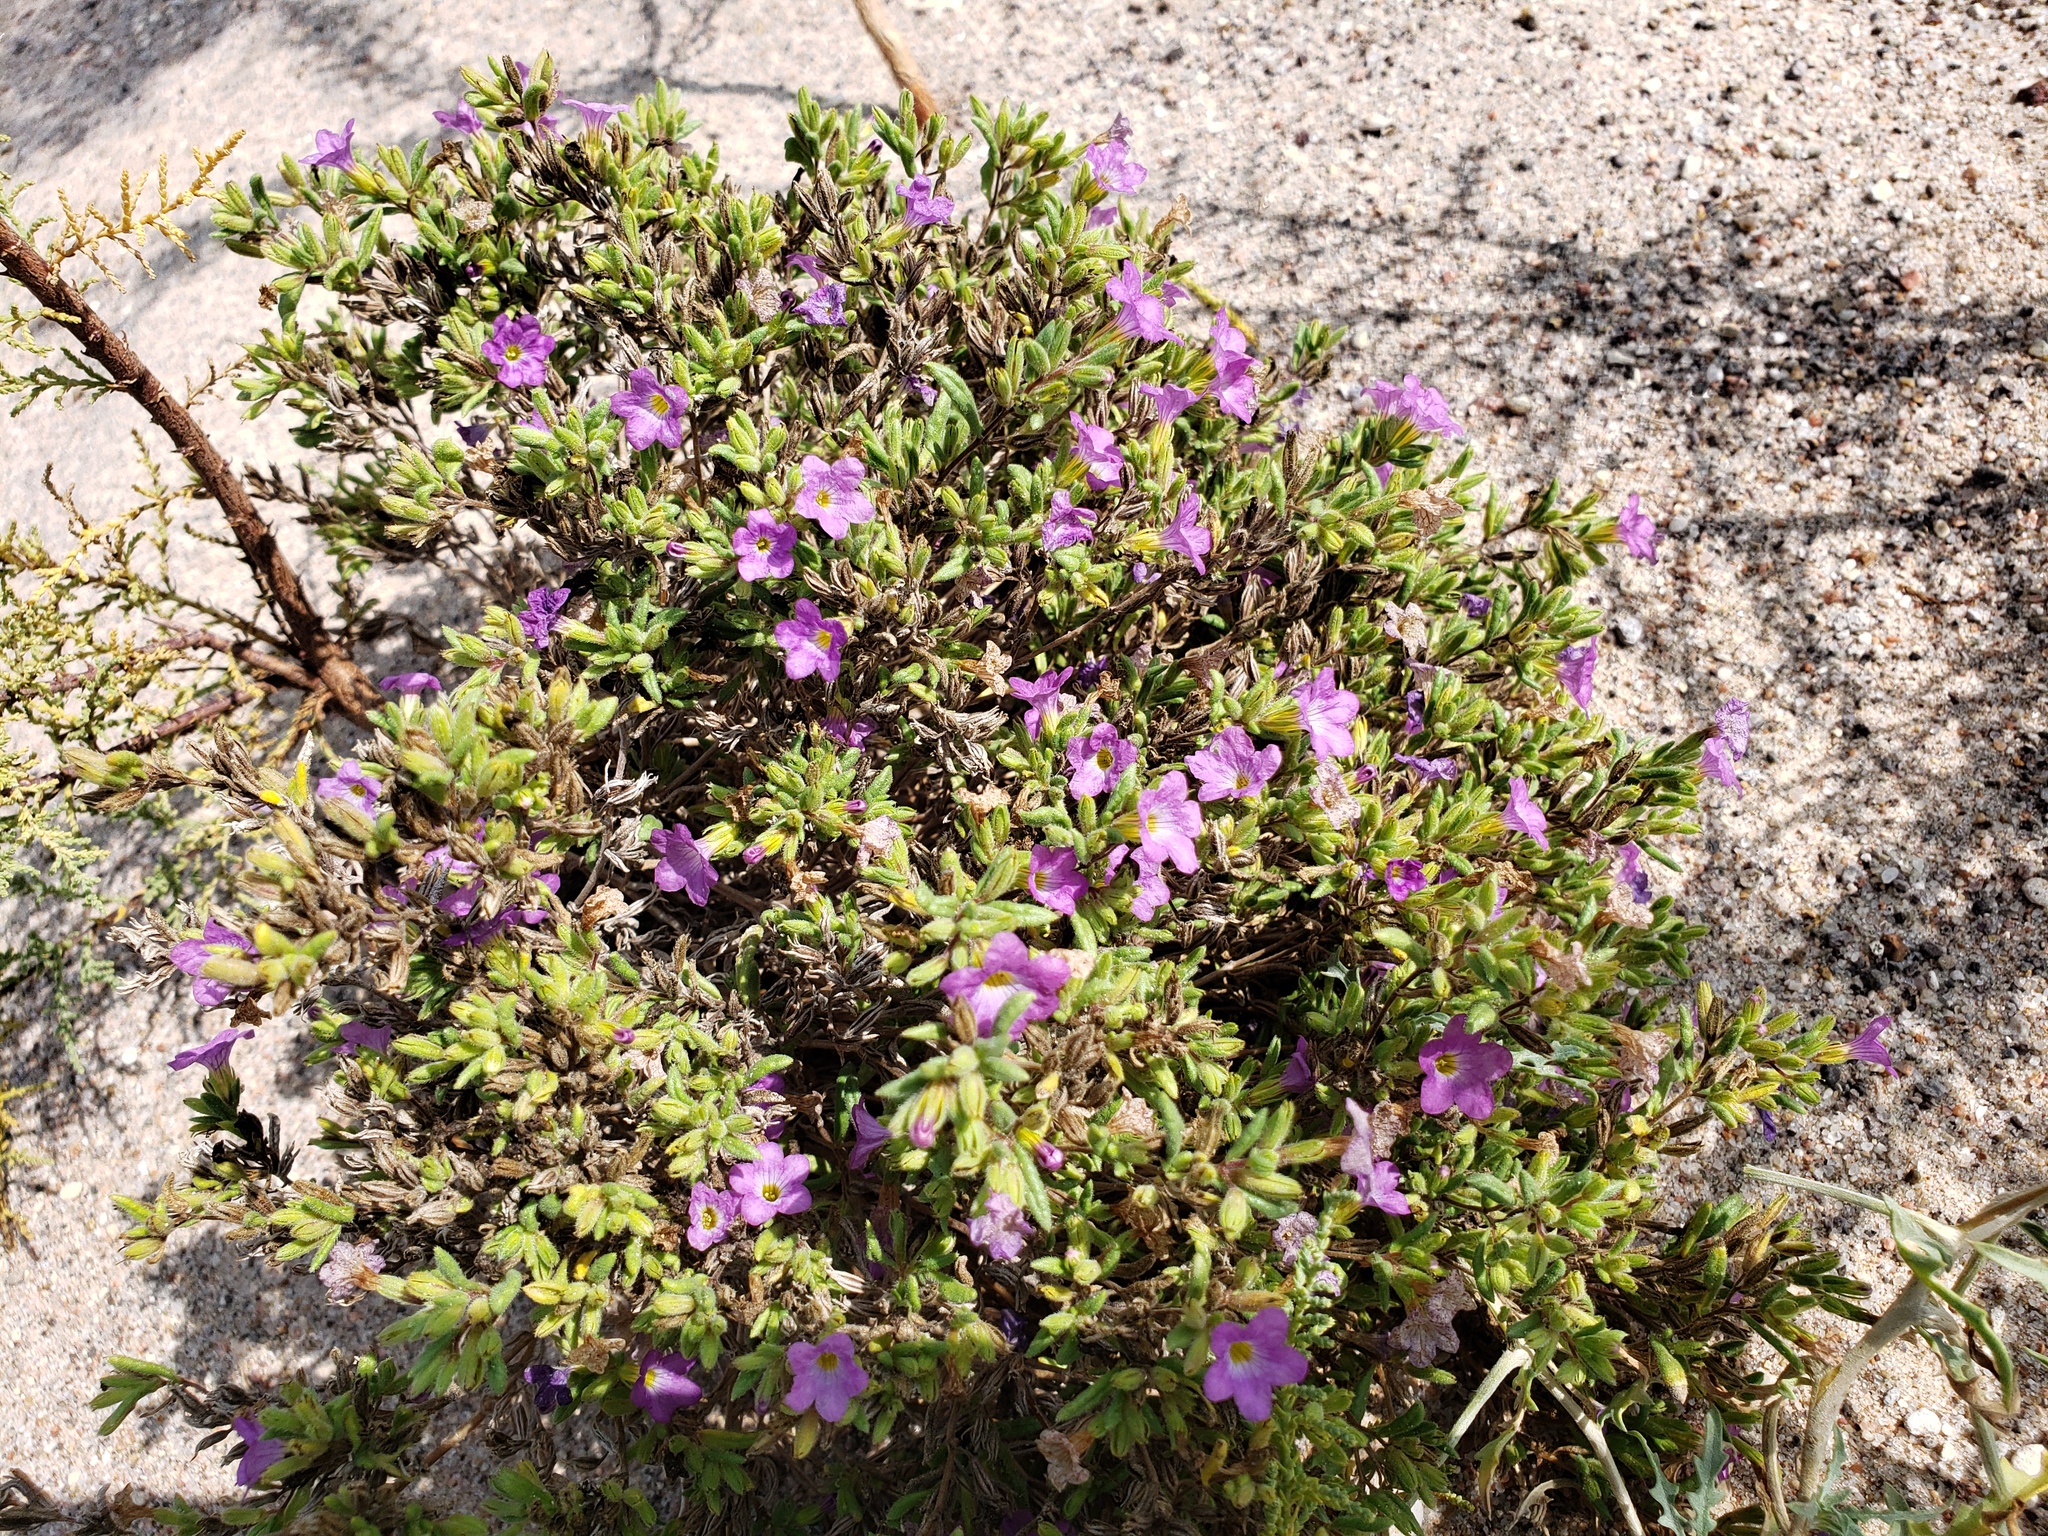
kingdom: Plantae
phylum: Tracheophyta
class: Magnoliopsida
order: Boraginales
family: Namaceae
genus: Nama
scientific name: Nama hispida
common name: Bristly nama
